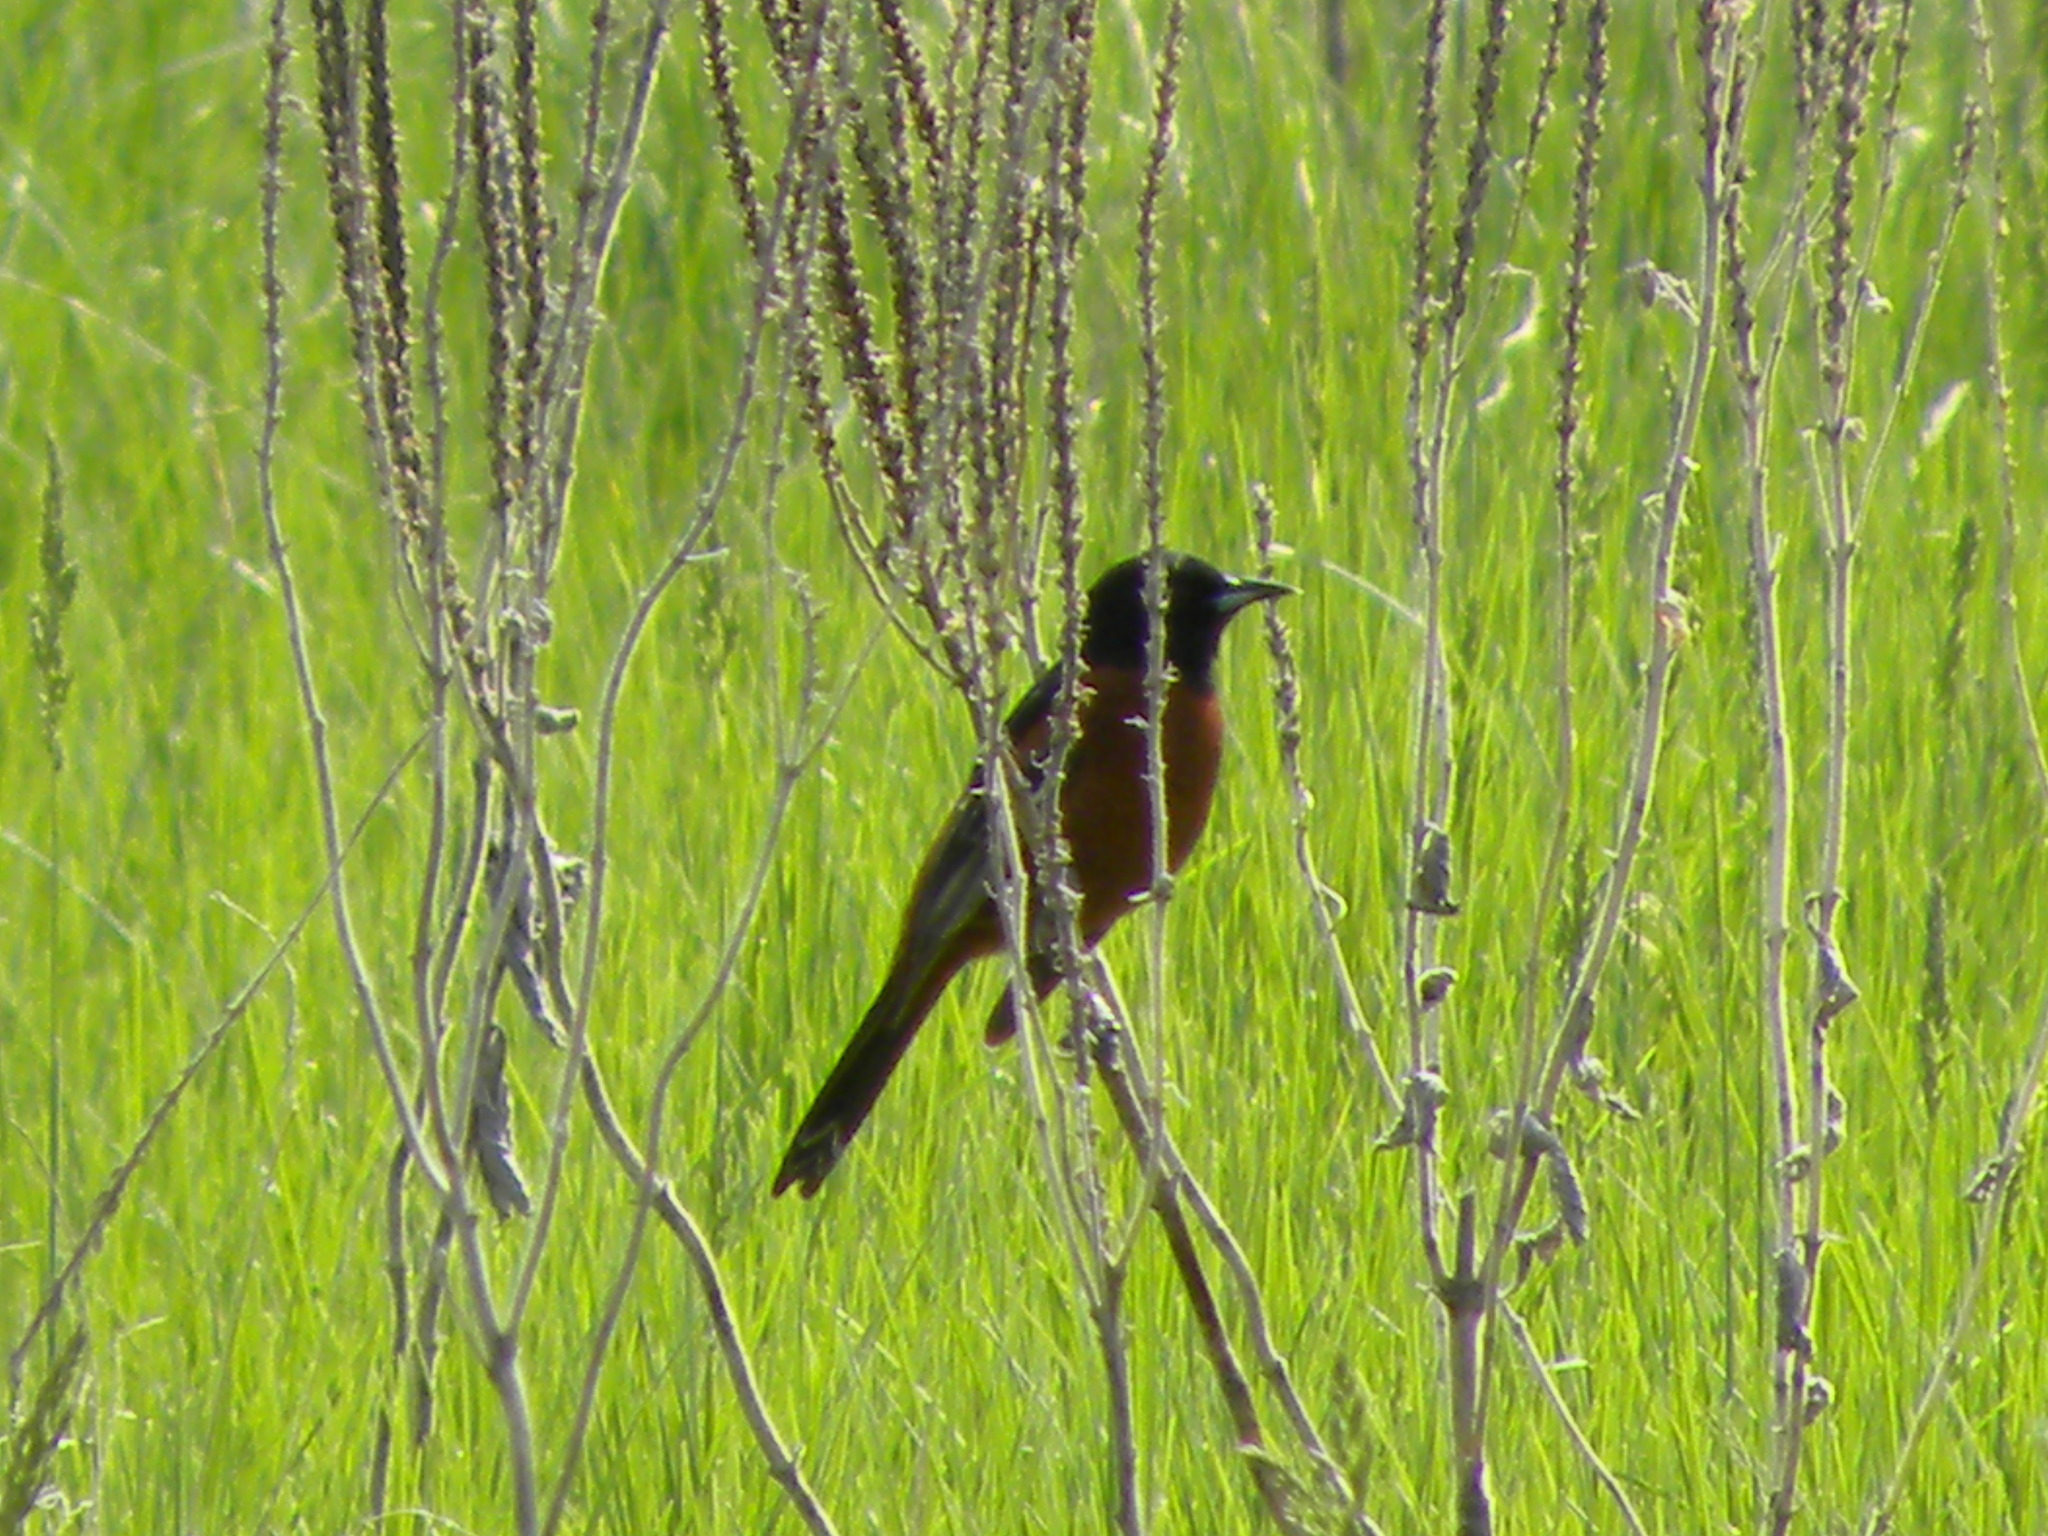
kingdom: Animalia
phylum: Chordata
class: Aves
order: Passeriformes
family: Icteridae
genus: Icterus
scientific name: Icterus spurius
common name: Orchard oriole
